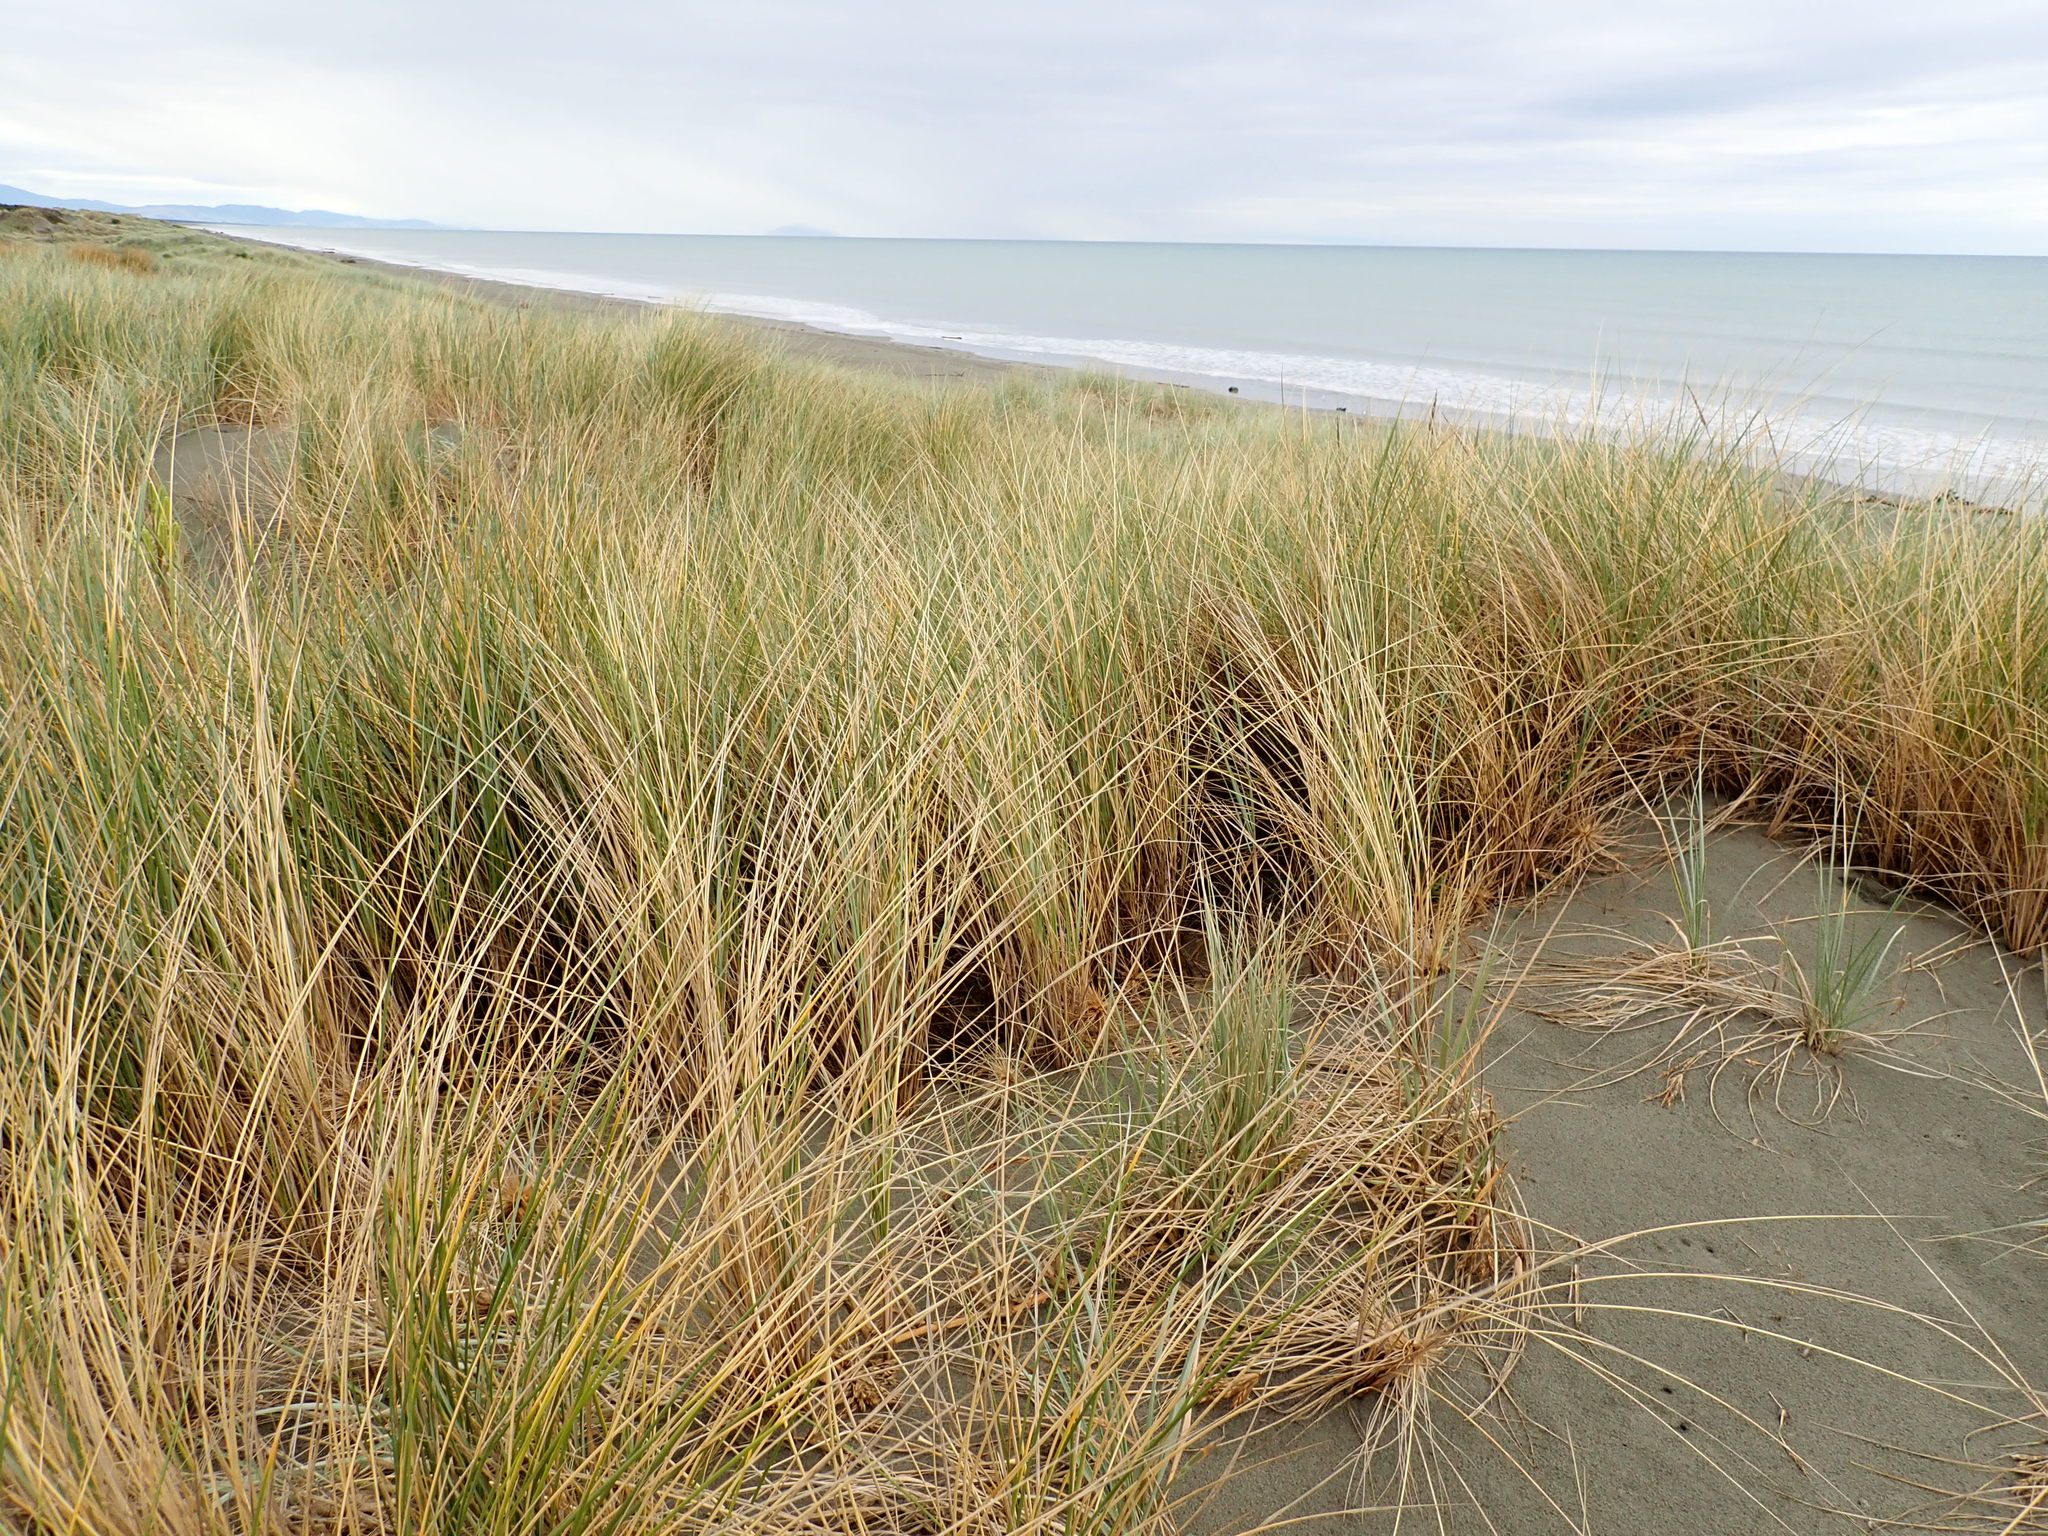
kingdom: Plantae
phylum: Tracheophyta
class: Liliopsida
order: Poales
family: Poaceae
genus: Calamagrostis
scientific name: Calamagrostis arenaria
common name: European beachgrass
